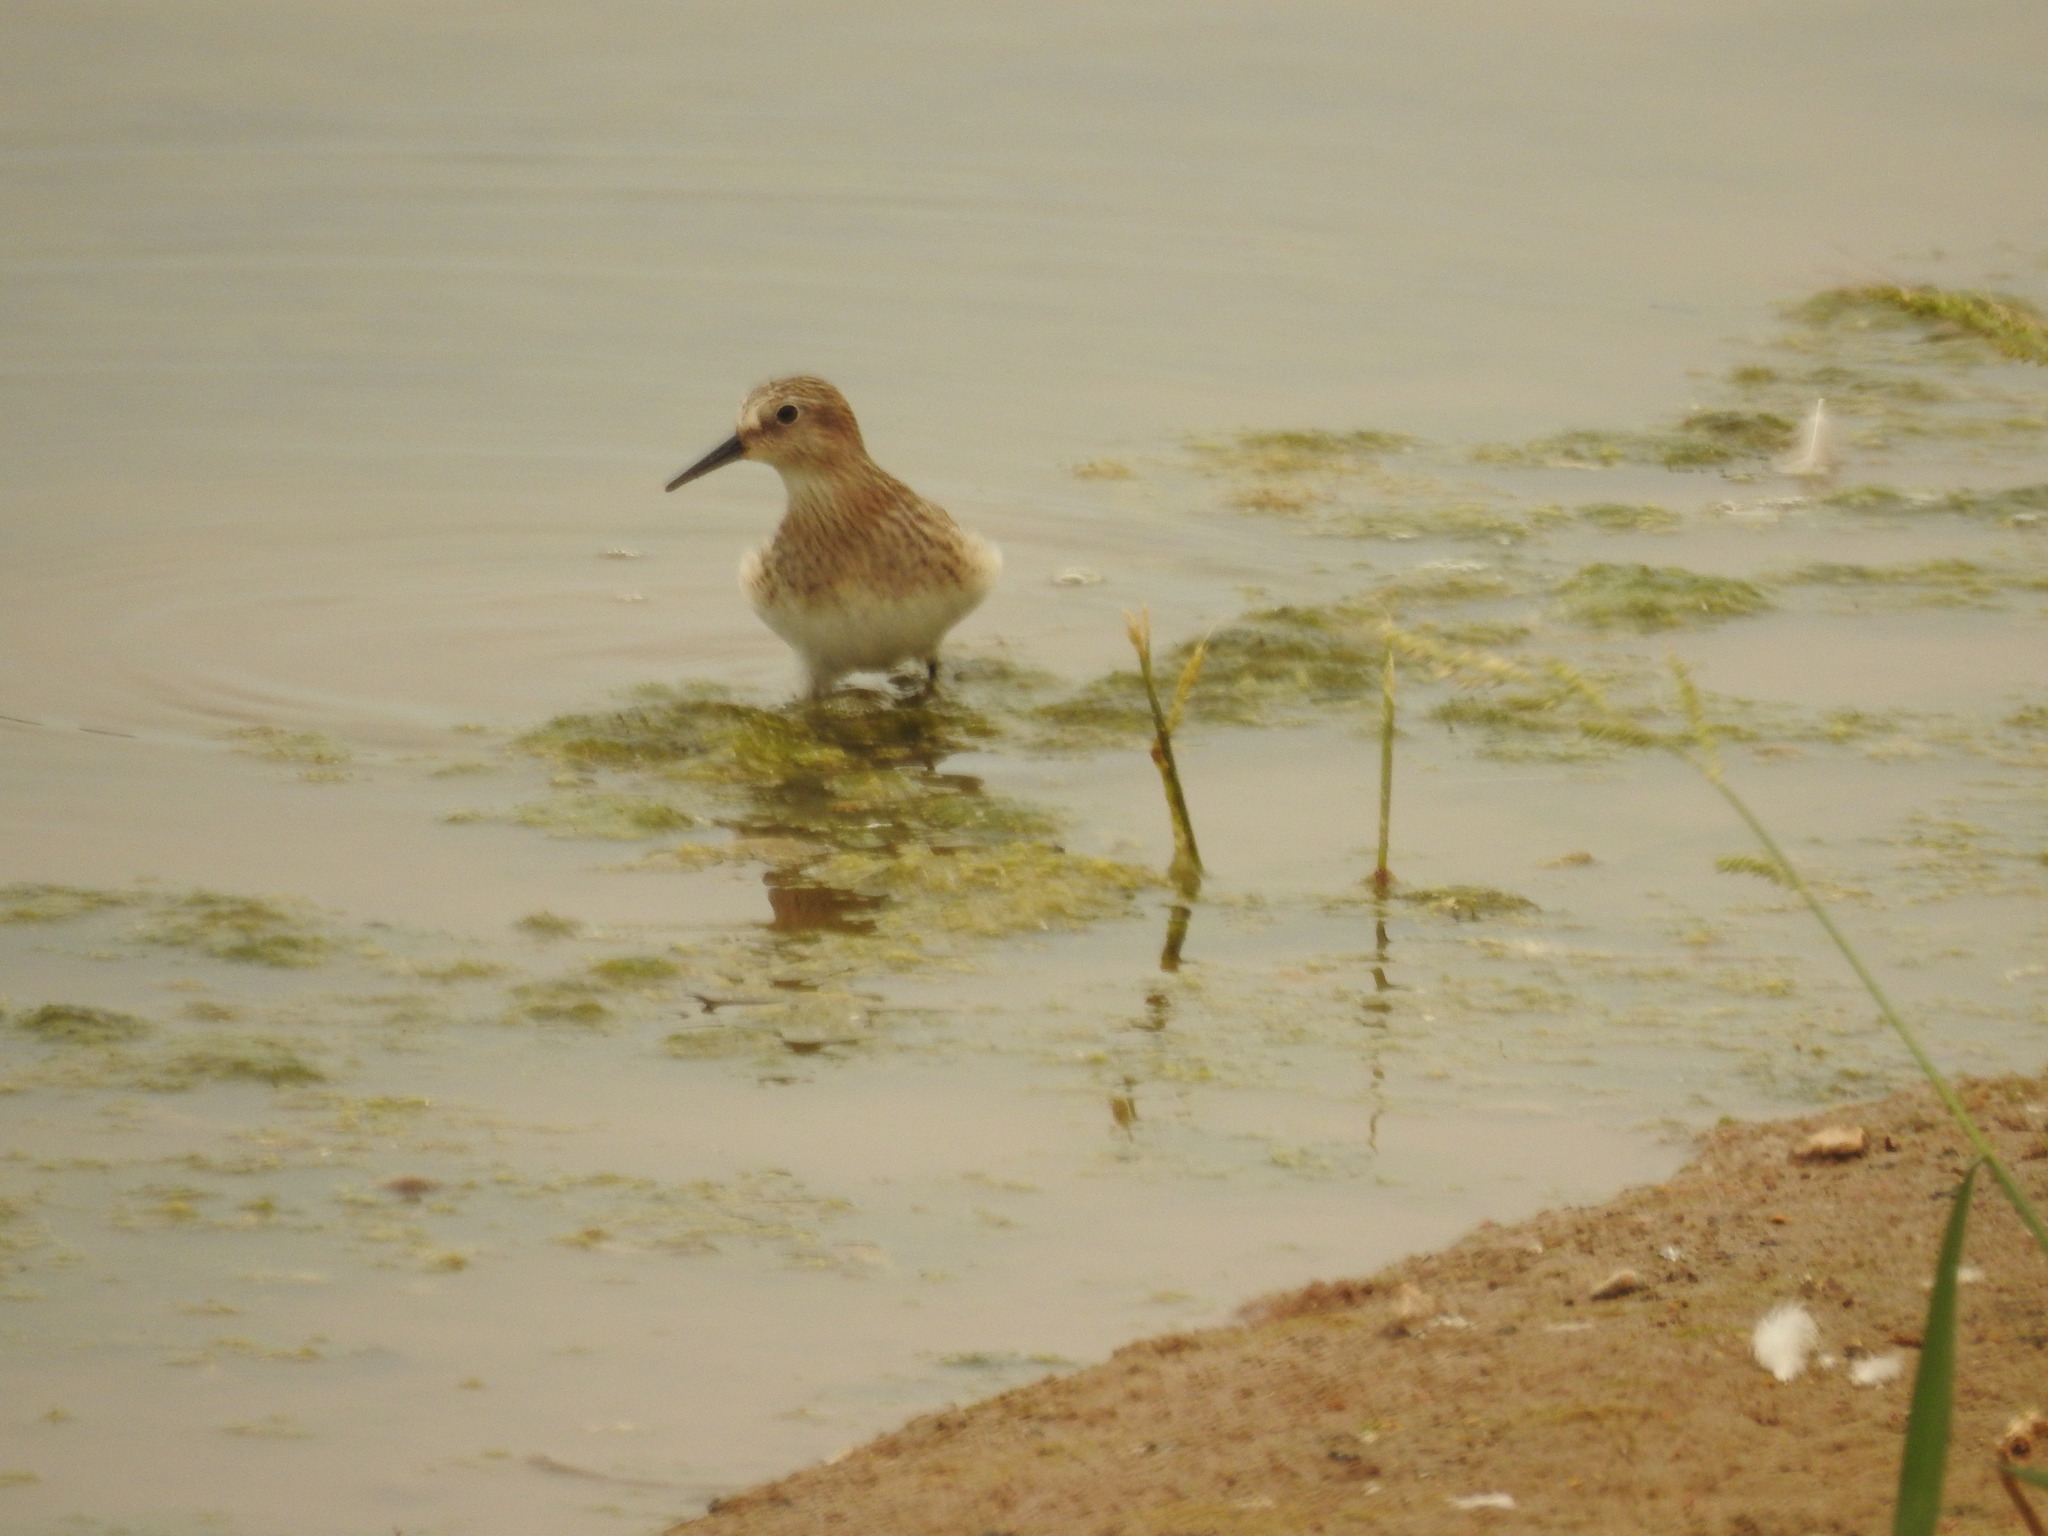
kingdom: Animalia
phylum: Chordata
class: Aves
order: Charadriiformes
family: Scolopacidae
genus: Calidris
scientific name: Calidris bairdii
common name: Baird's sandpiper
